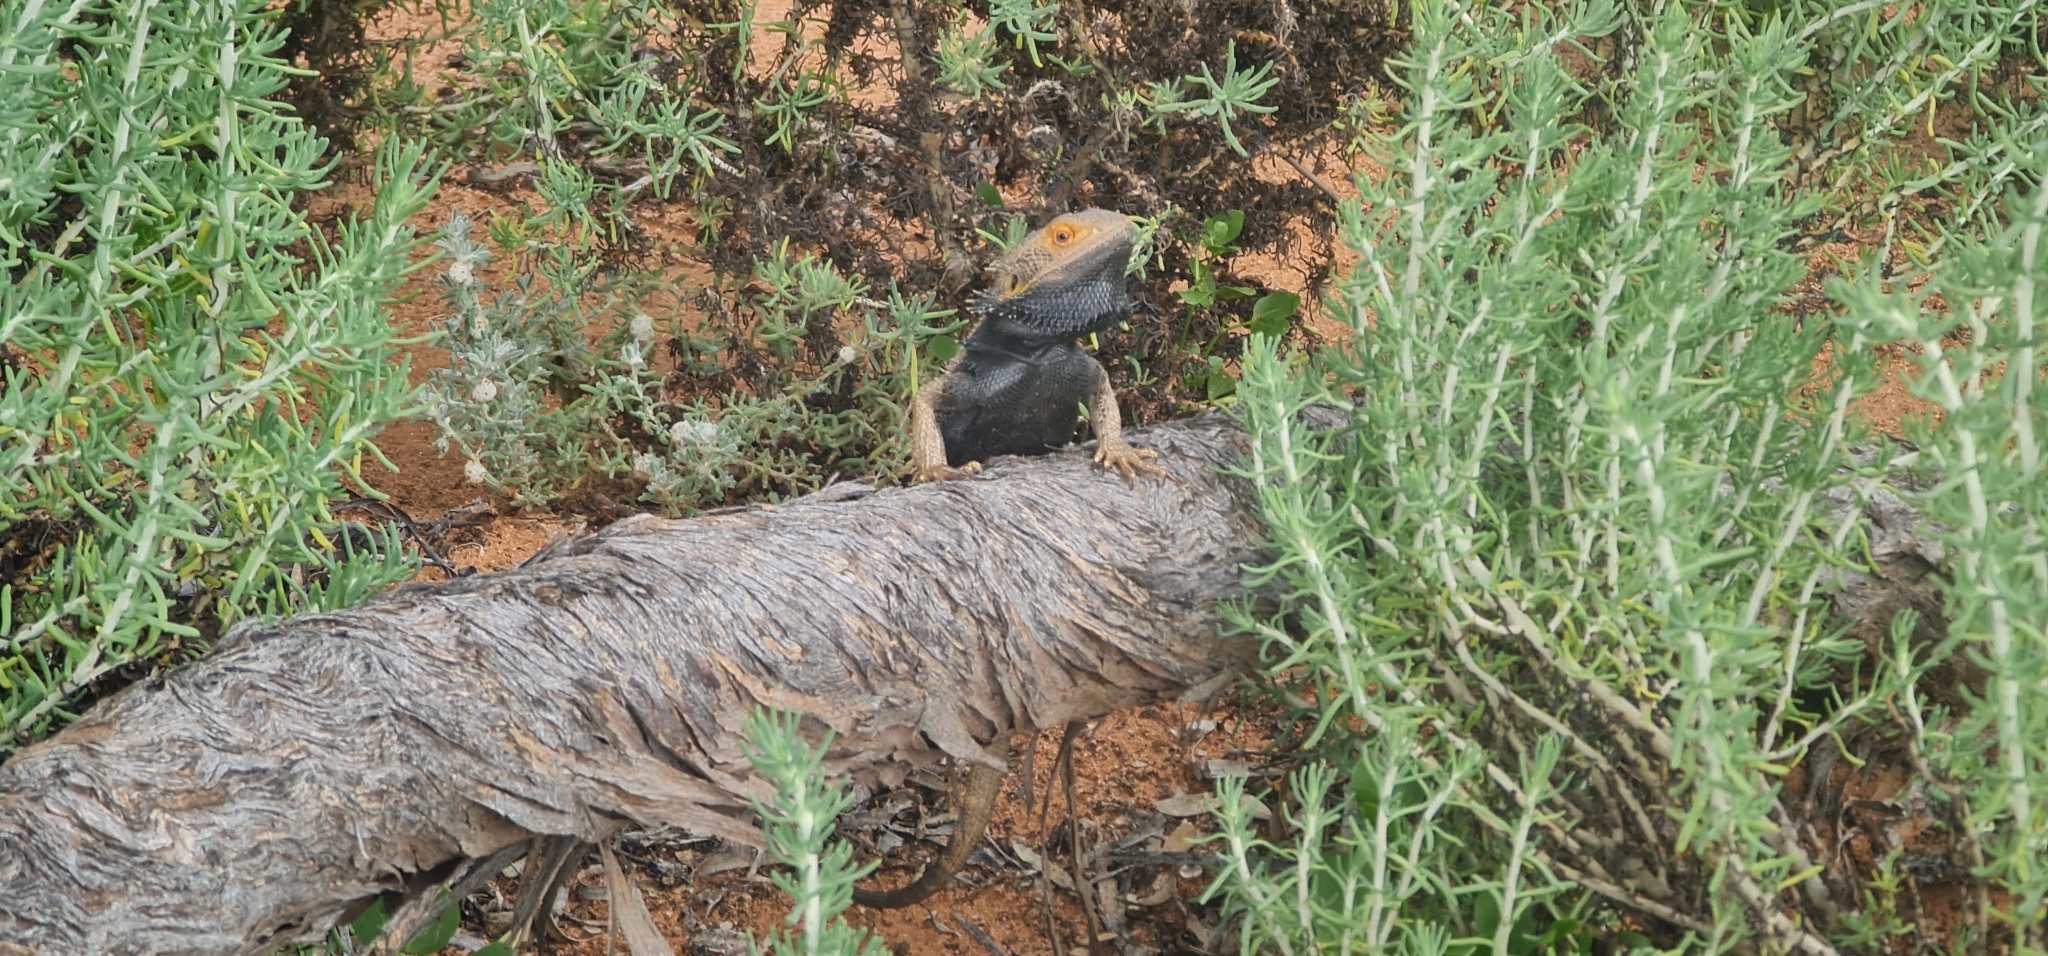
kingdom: Animalia
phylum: Chordata
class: Squamata
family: Agamidae
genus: Pogona
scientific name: Pogona vitticeps
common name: Central bearded dragon
